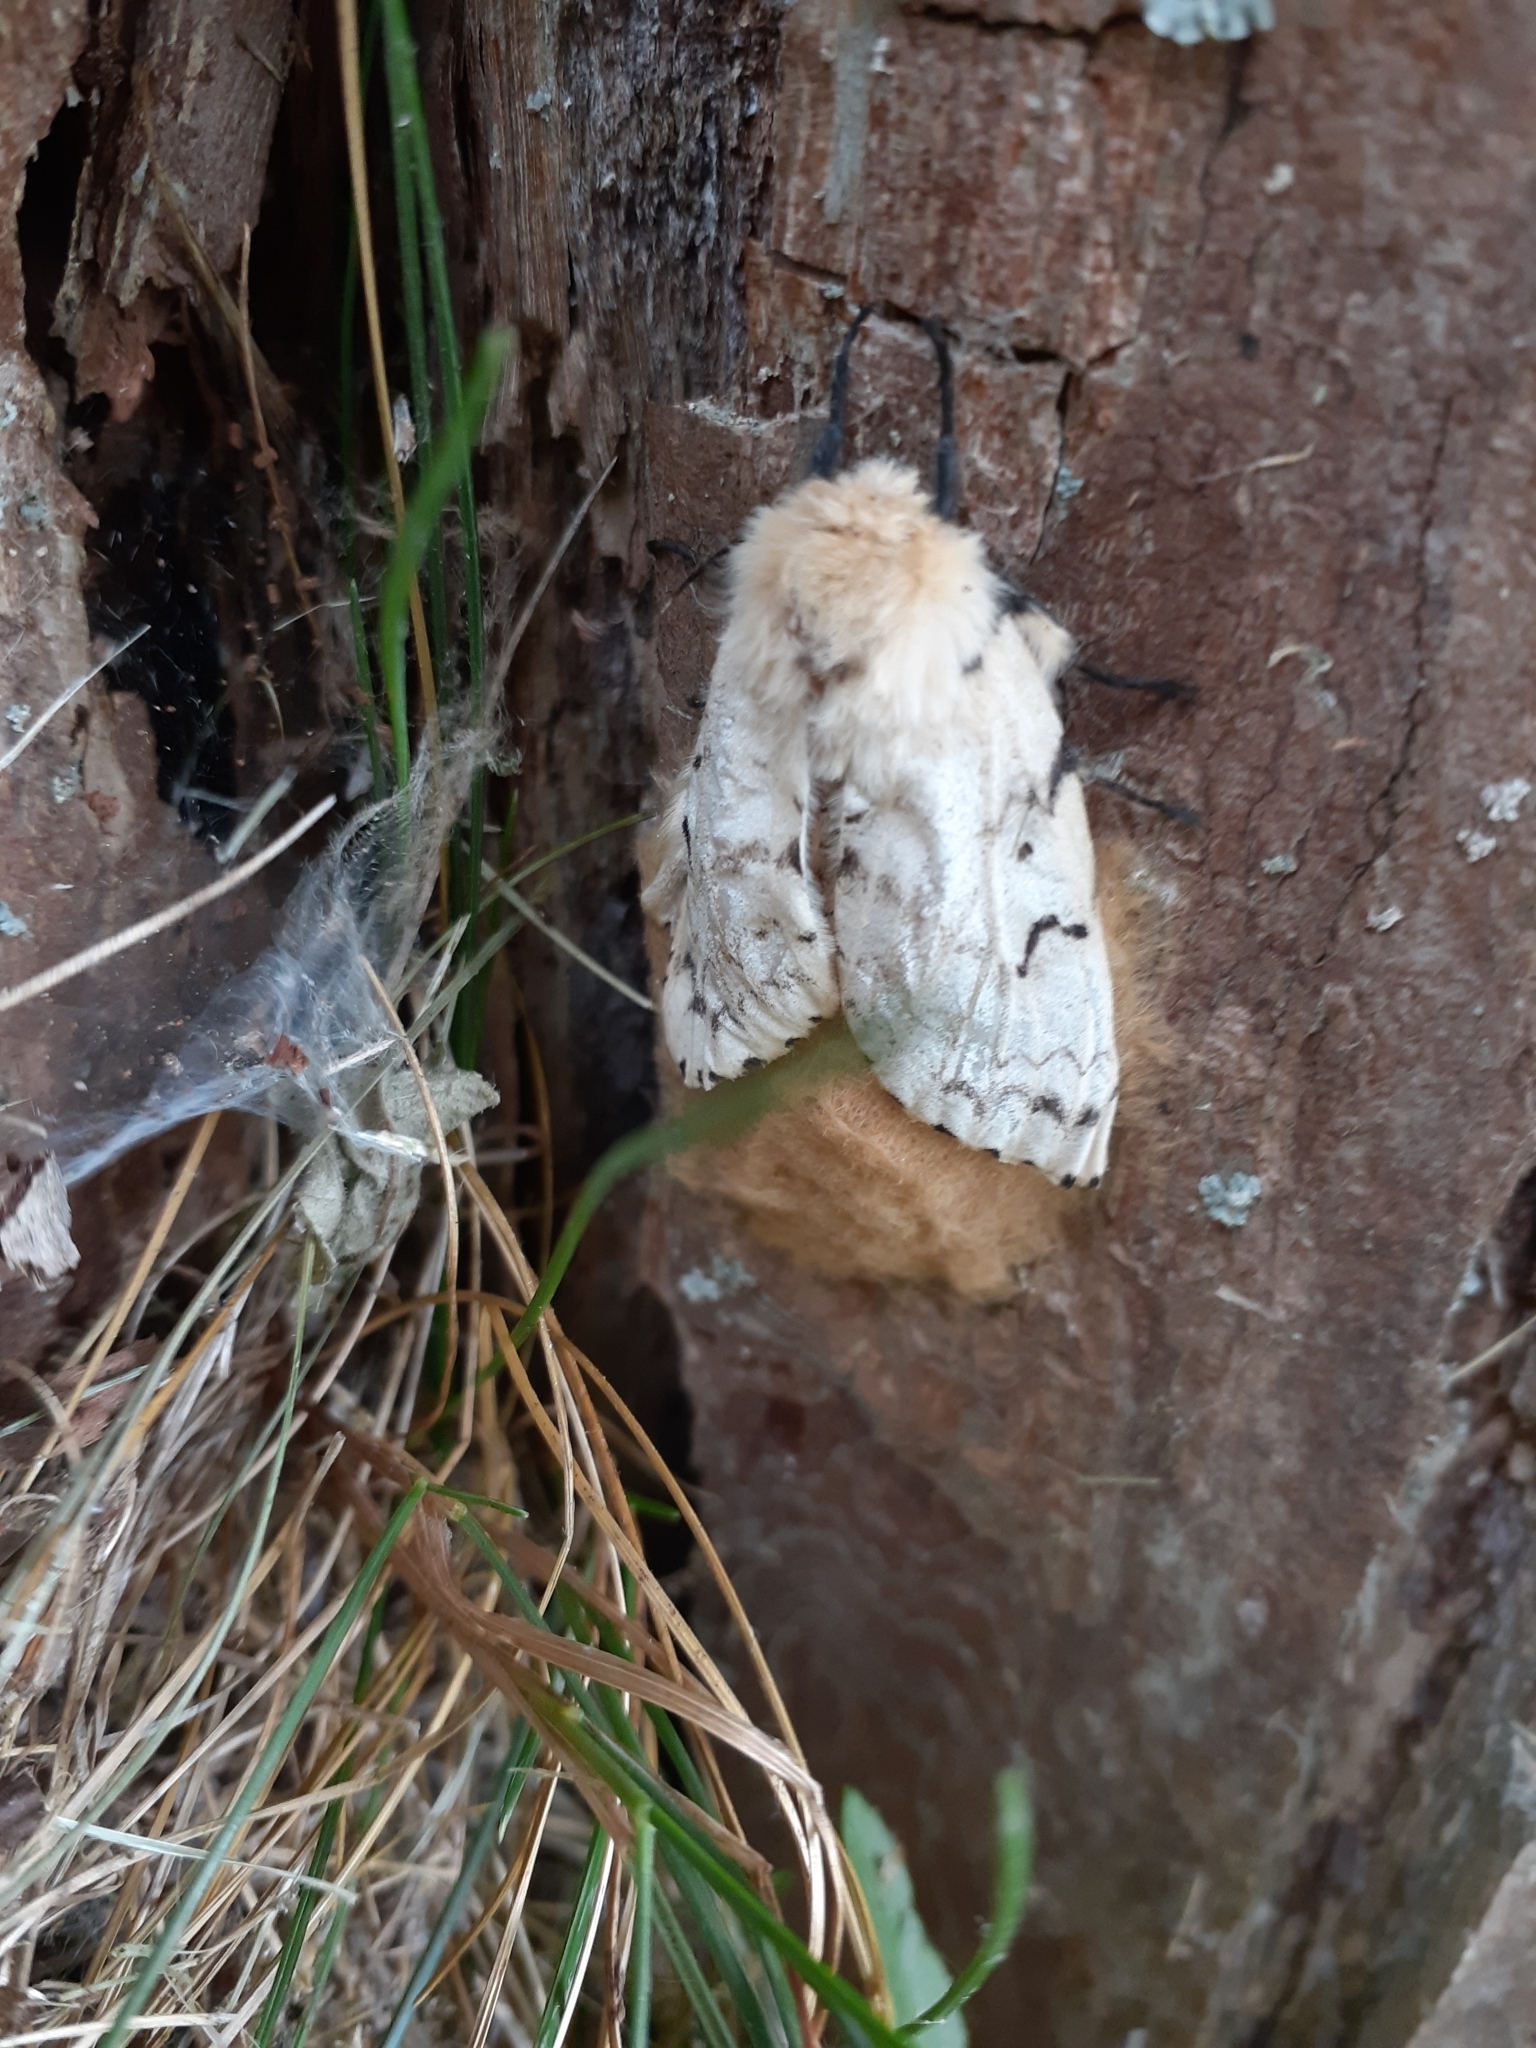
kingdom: Animalia
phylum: Arthropoda
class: Insecta
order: Lepidoptera
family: Erebidae
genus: Lymantria
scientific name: Lymantria dispar
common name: Gypsy moth
